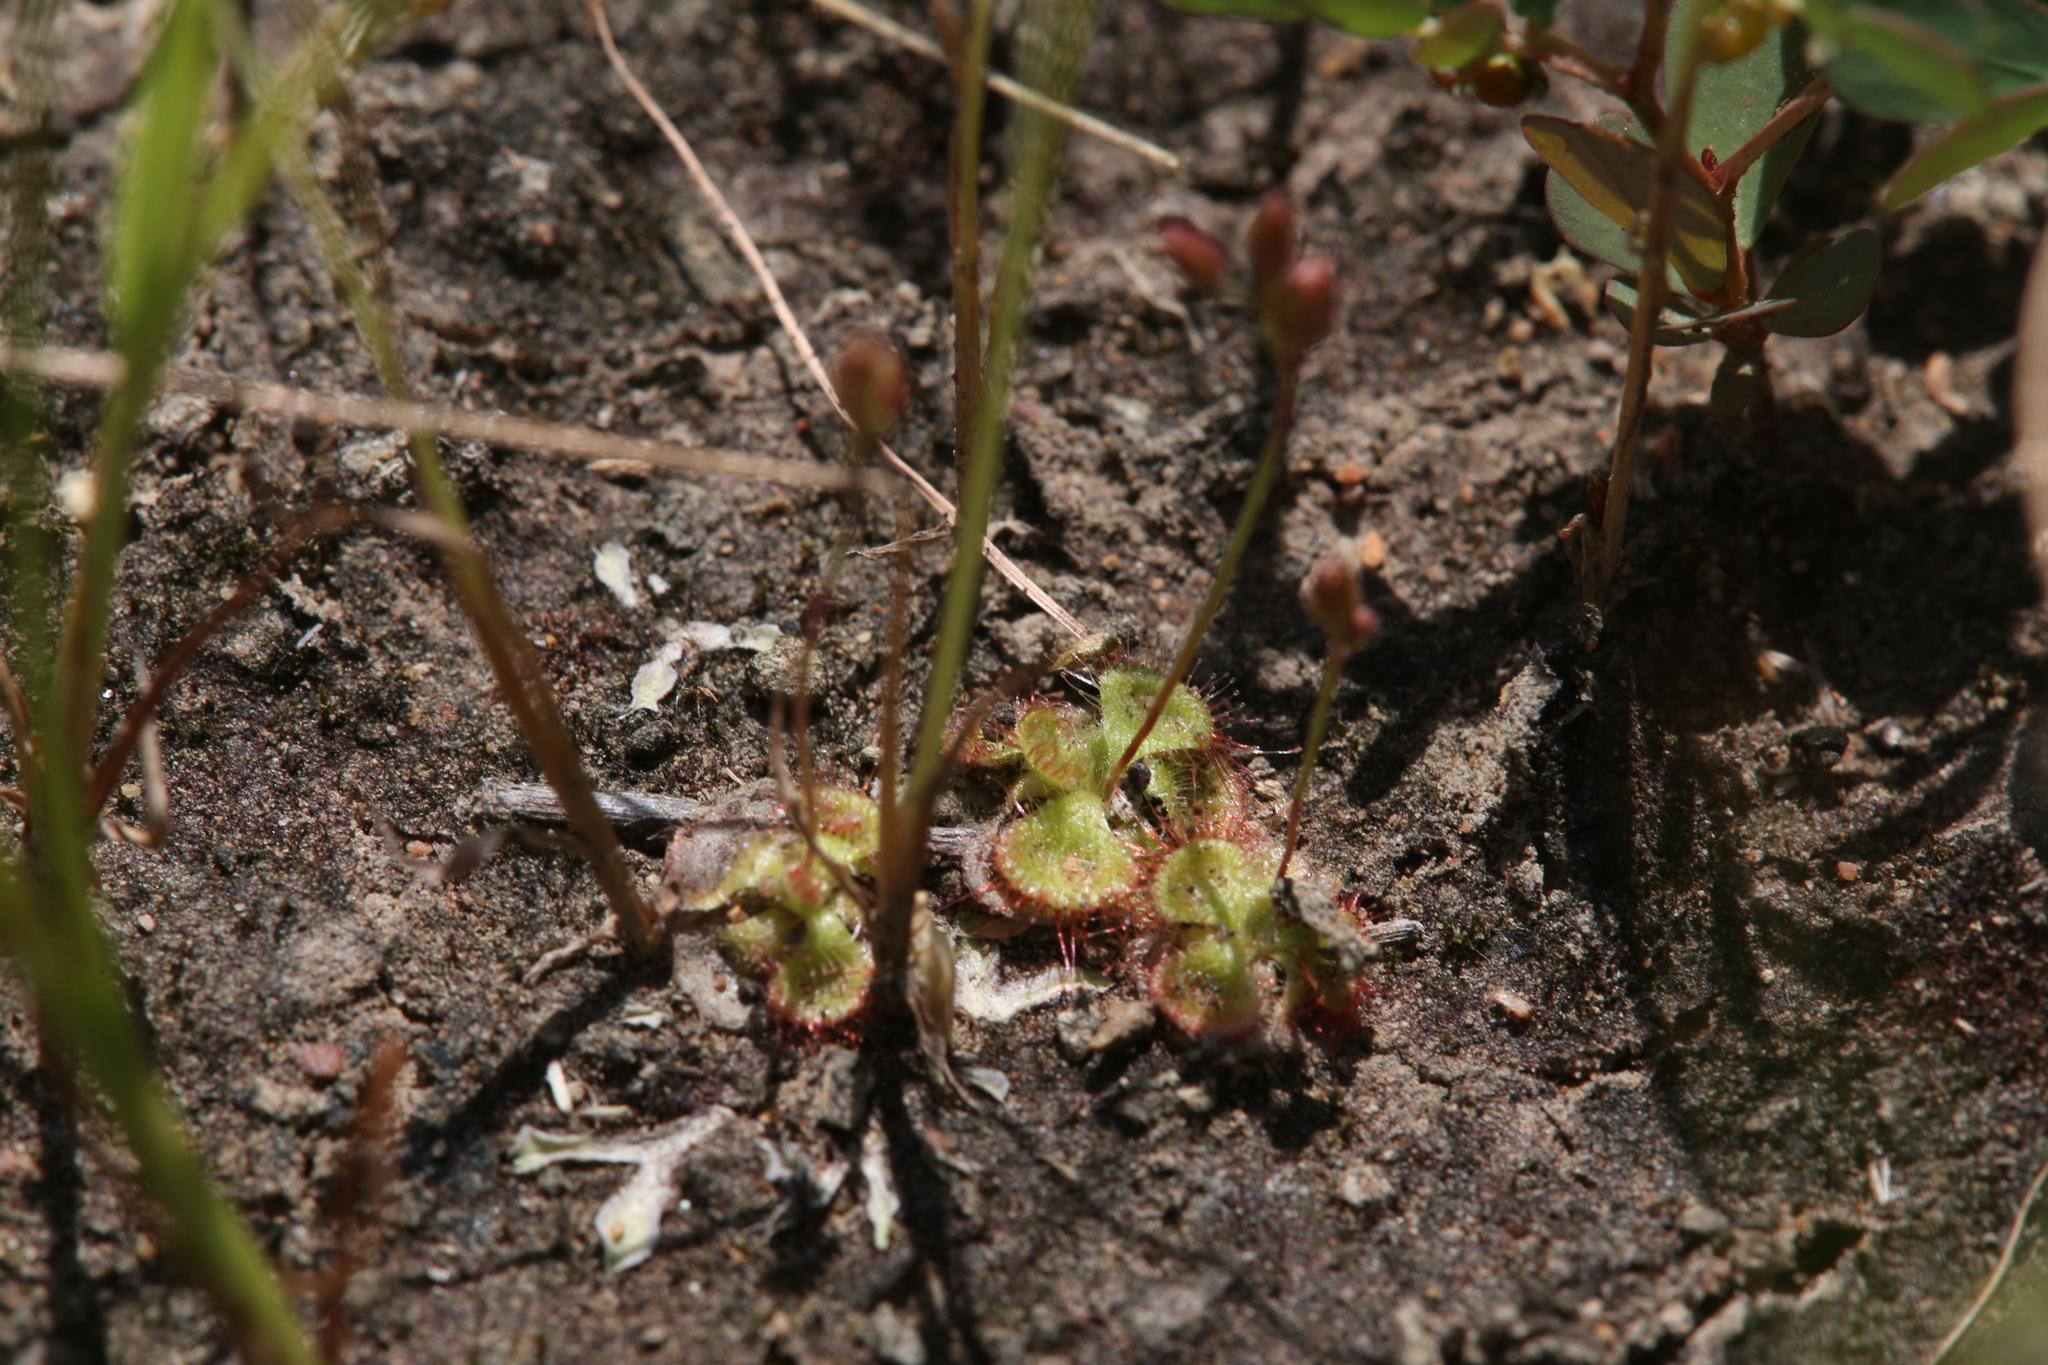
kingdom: Plantae
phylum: Tracheophyta
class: Magnoliopsida
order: Caryophyllales
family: Droseraceae
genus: Drosera
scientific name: Drosera spatulata
